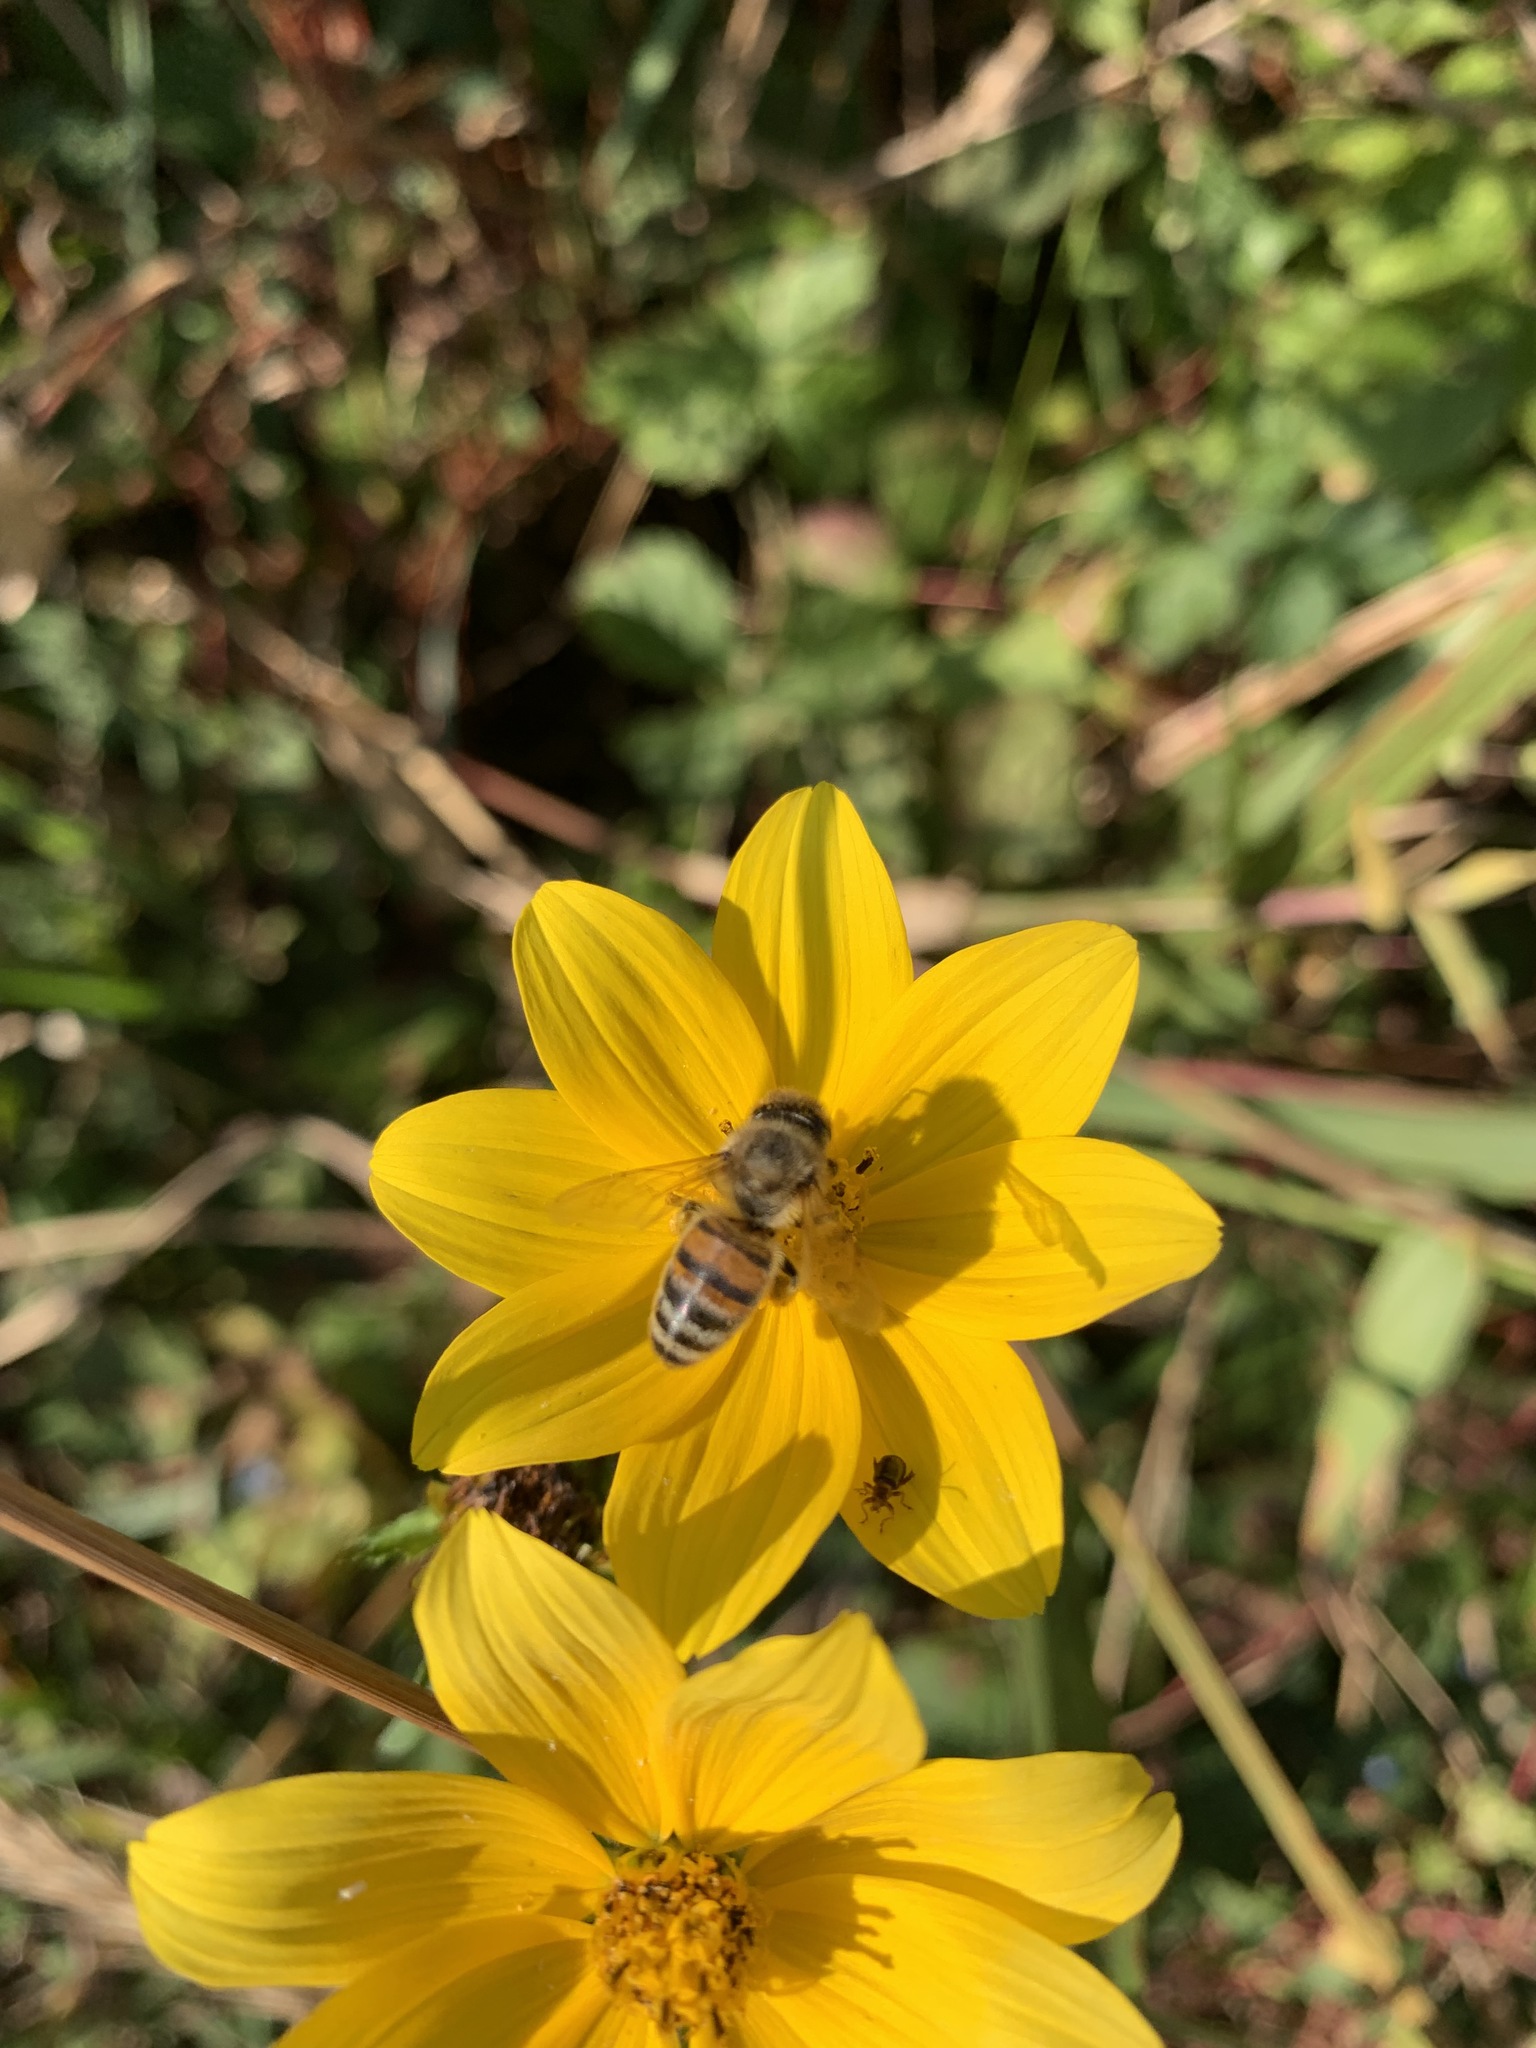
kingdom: Animalia
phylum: Arthropoda
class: Insecta
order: Hymenoptera
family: Apidae
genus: Apis
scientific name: Apis mellifera
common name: Honey bee
